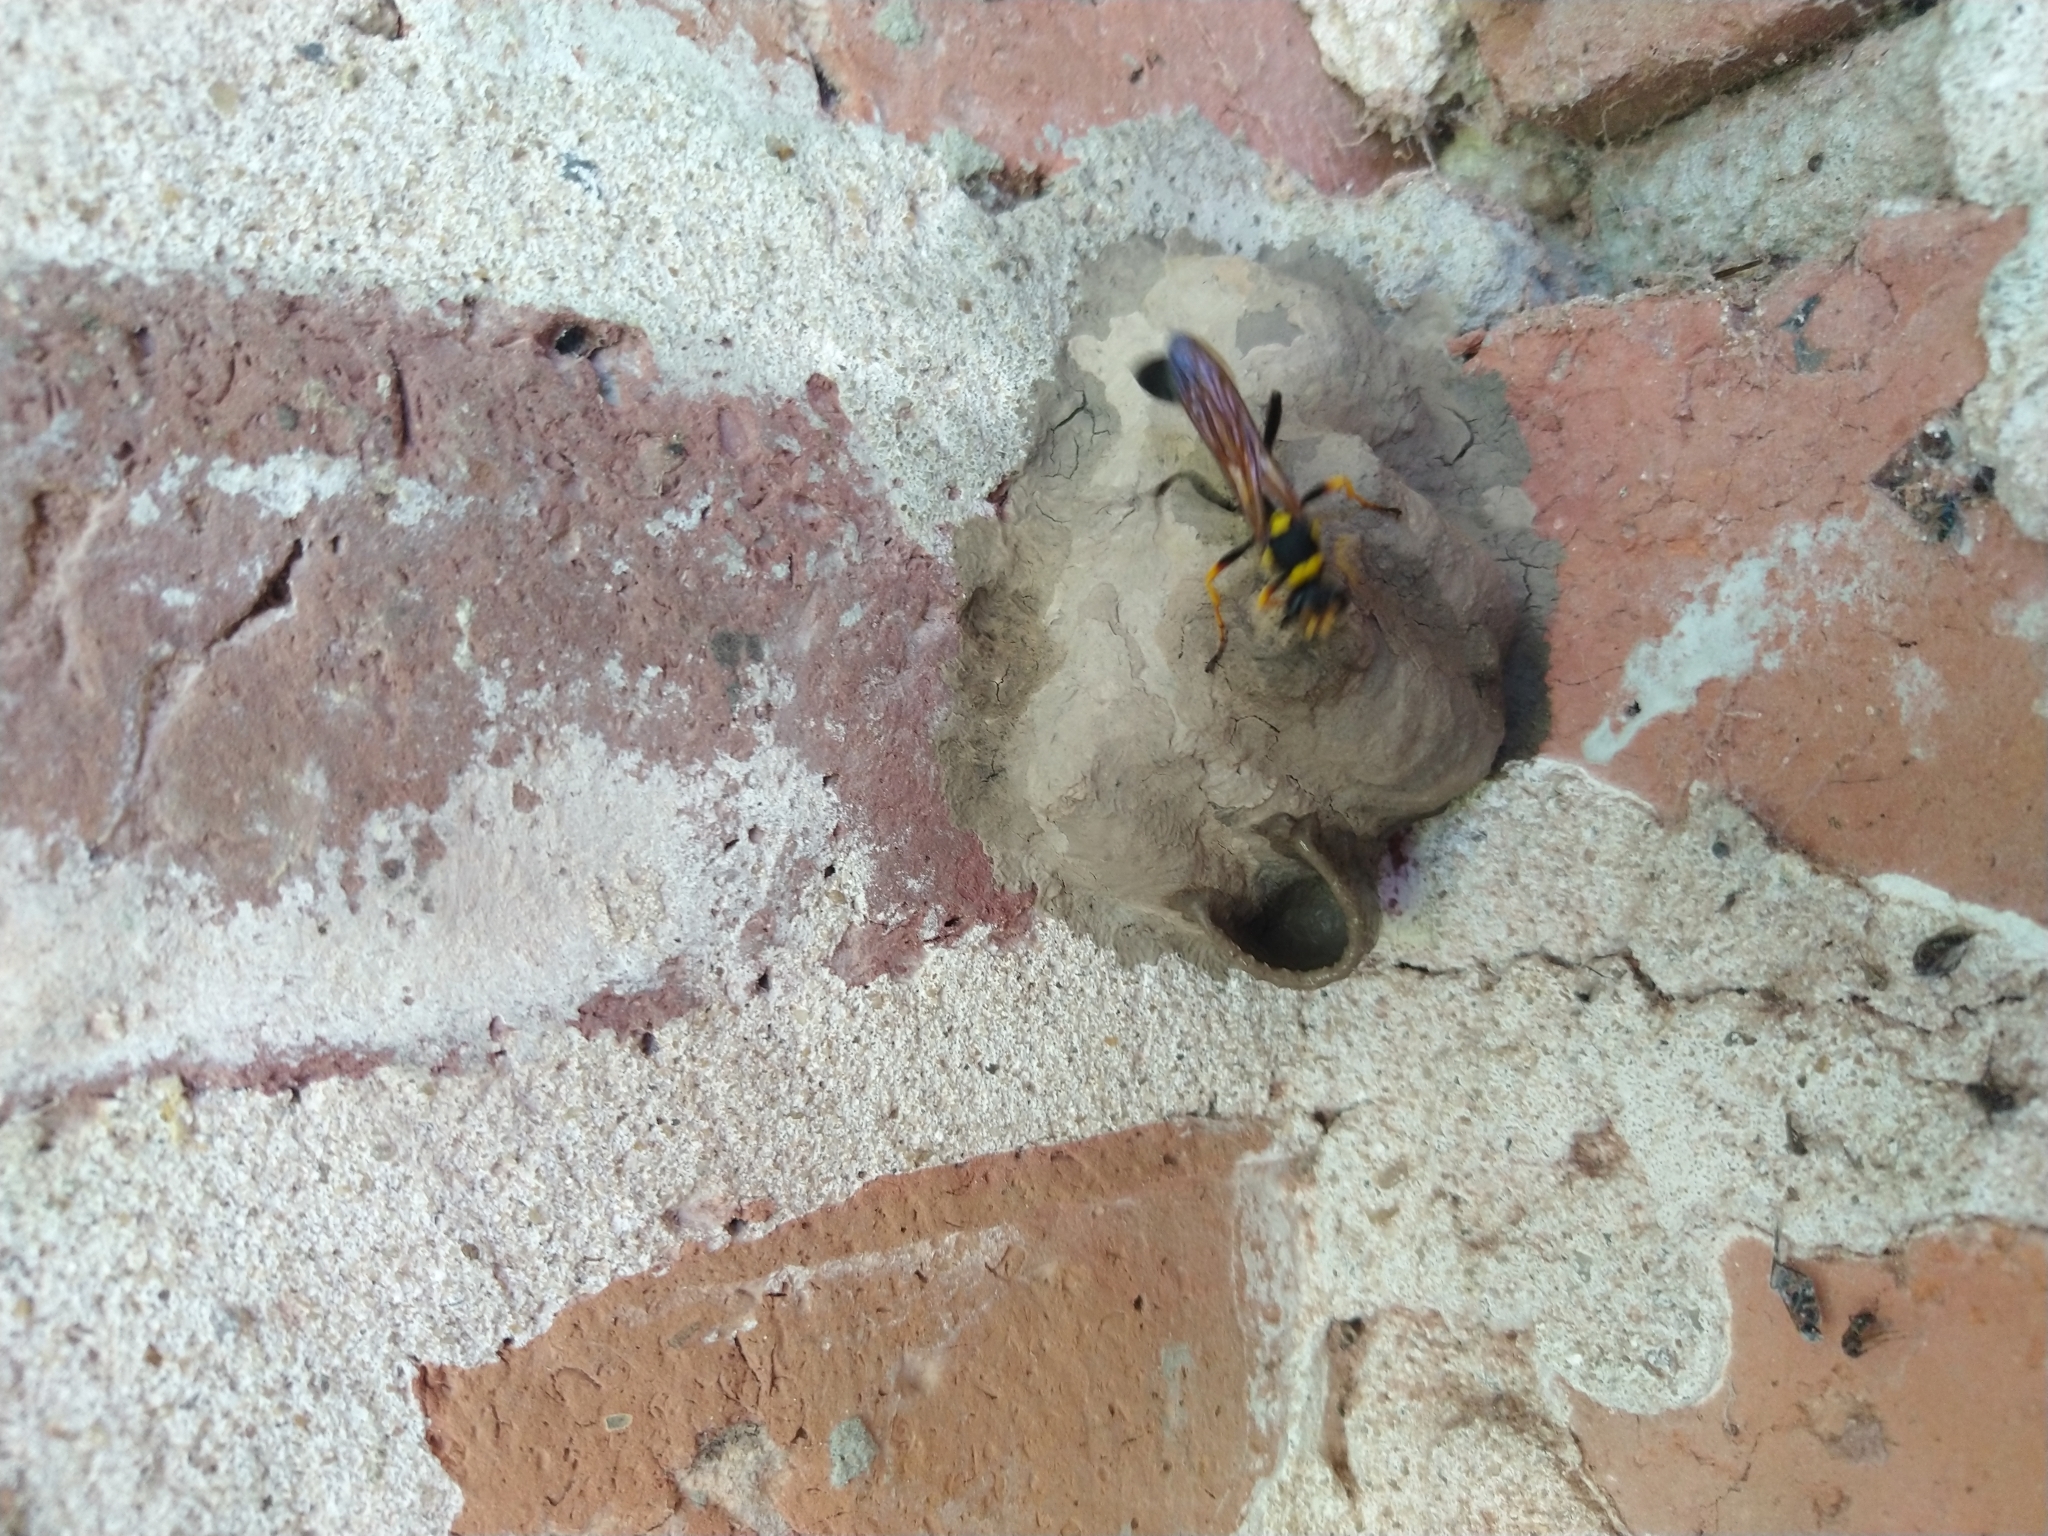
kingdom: Animalia
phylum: Arthropoda
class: Insecta
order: Hymenoptera
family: Sphecidae
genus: Sceliphron
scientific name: Sceliphron asiaticum
